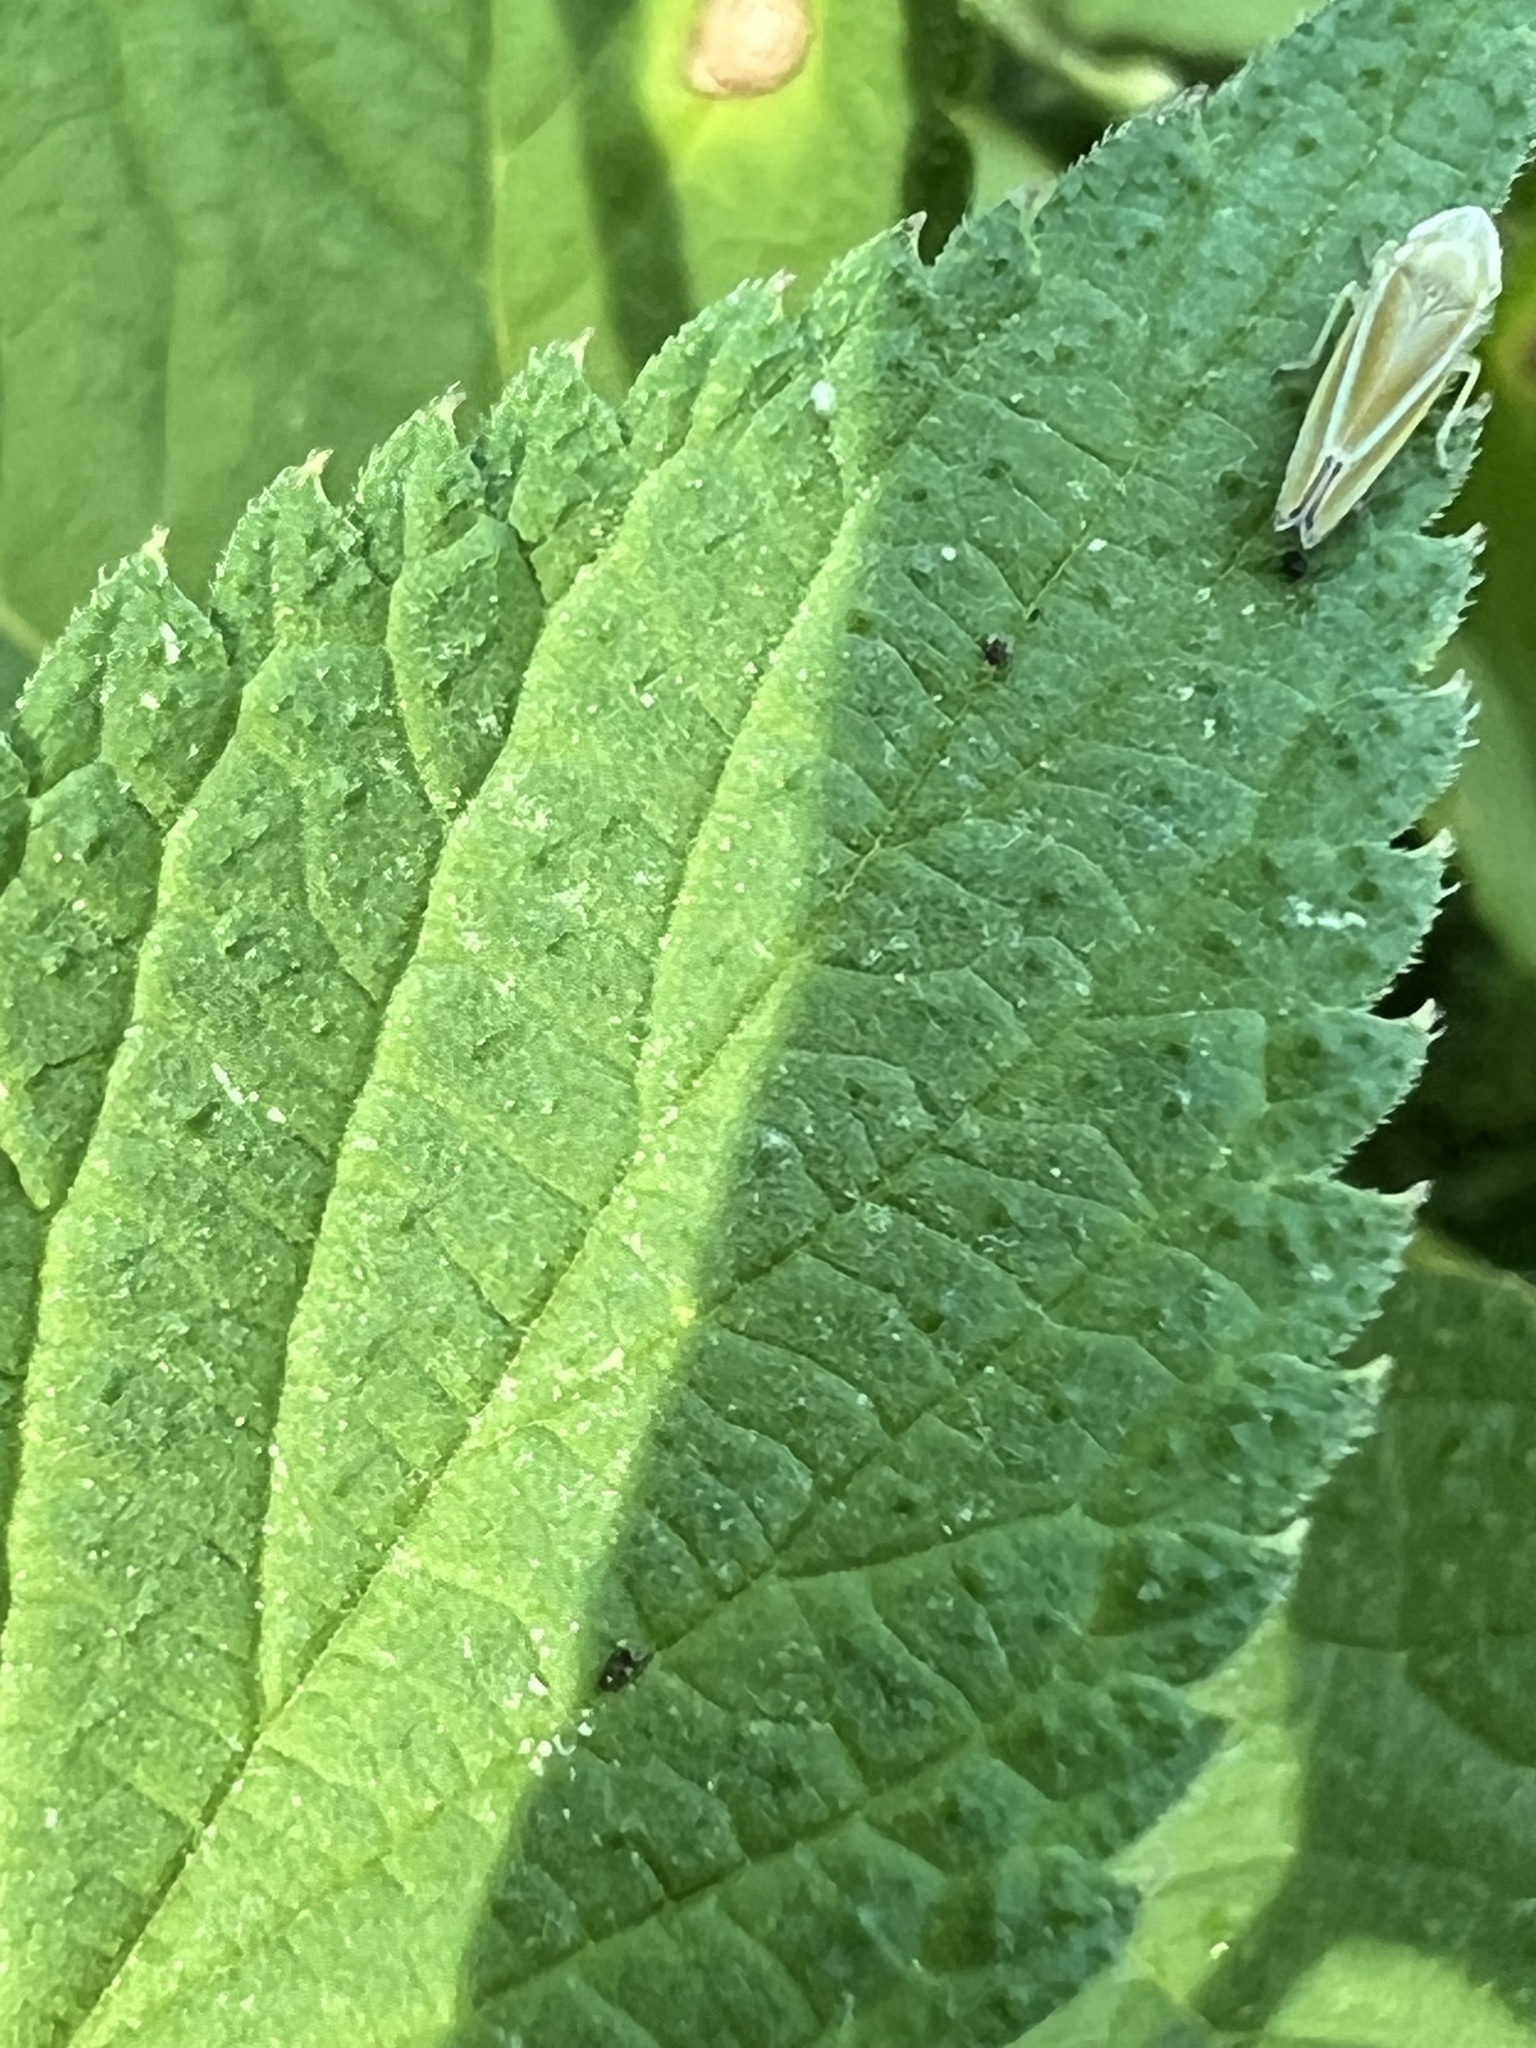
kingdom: Animalia
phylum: Arthropoda
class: Insecta
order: Hemiptera
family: Cicadellidae
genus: Graphocephala
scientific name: Graphocephala versuta
